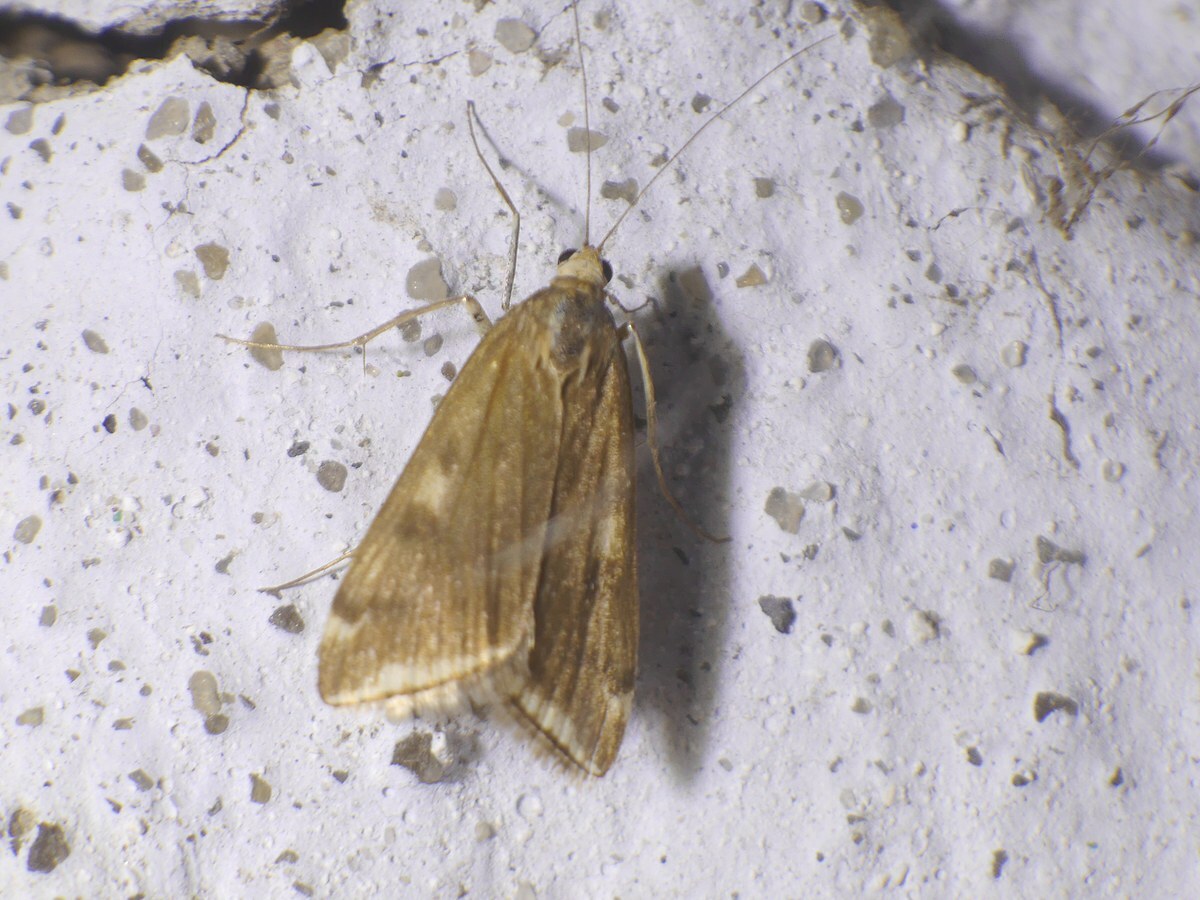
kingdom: Animalia
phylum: Arthropoda
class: Insecta
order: Lepidoptera
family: Crambidae
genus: Loxostege
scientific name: Loxostege sticticalis
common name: Crambid moth
